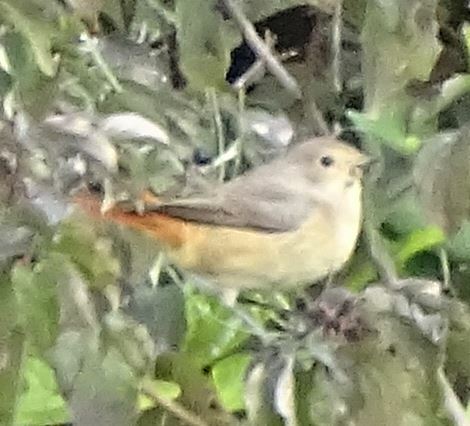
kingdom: Animalia
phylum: Chordata
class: Aves
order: Passeriformes
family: Muscicapidae
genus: Phoenicurus
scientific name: Phoenicurus phoenicurus
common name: Common redstart
